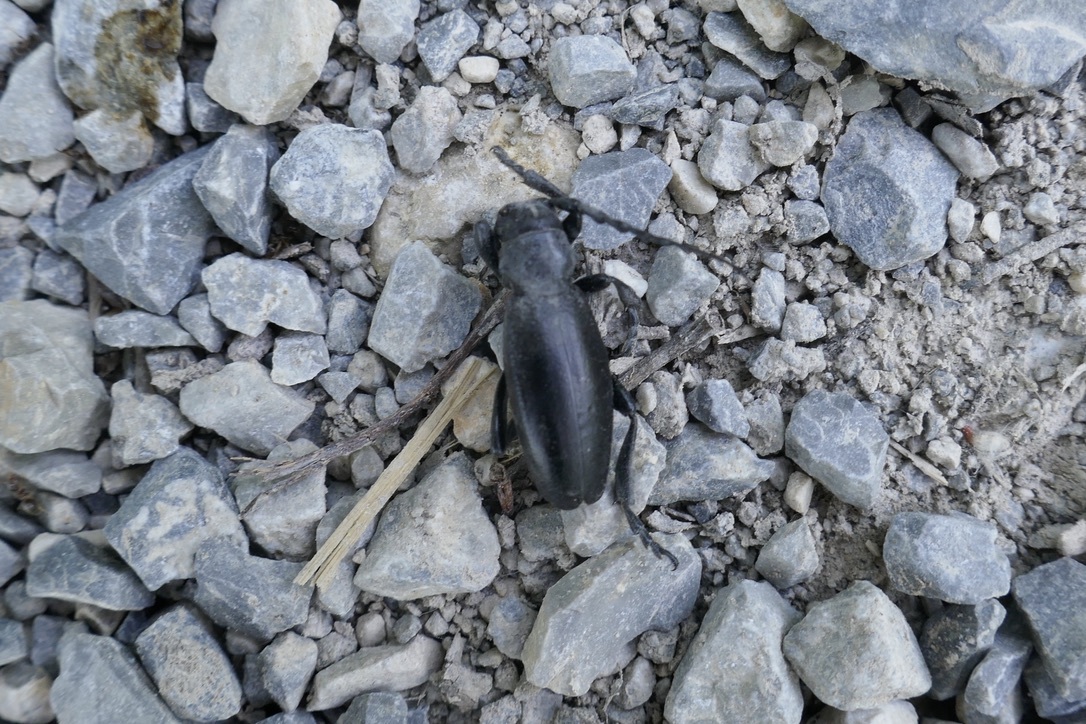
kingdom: Animalia
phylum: Arthropoda
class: Insecta
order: Coleoptera
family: Cerambycidae
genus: Dorcadion
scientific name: Dorcadion aethiops
